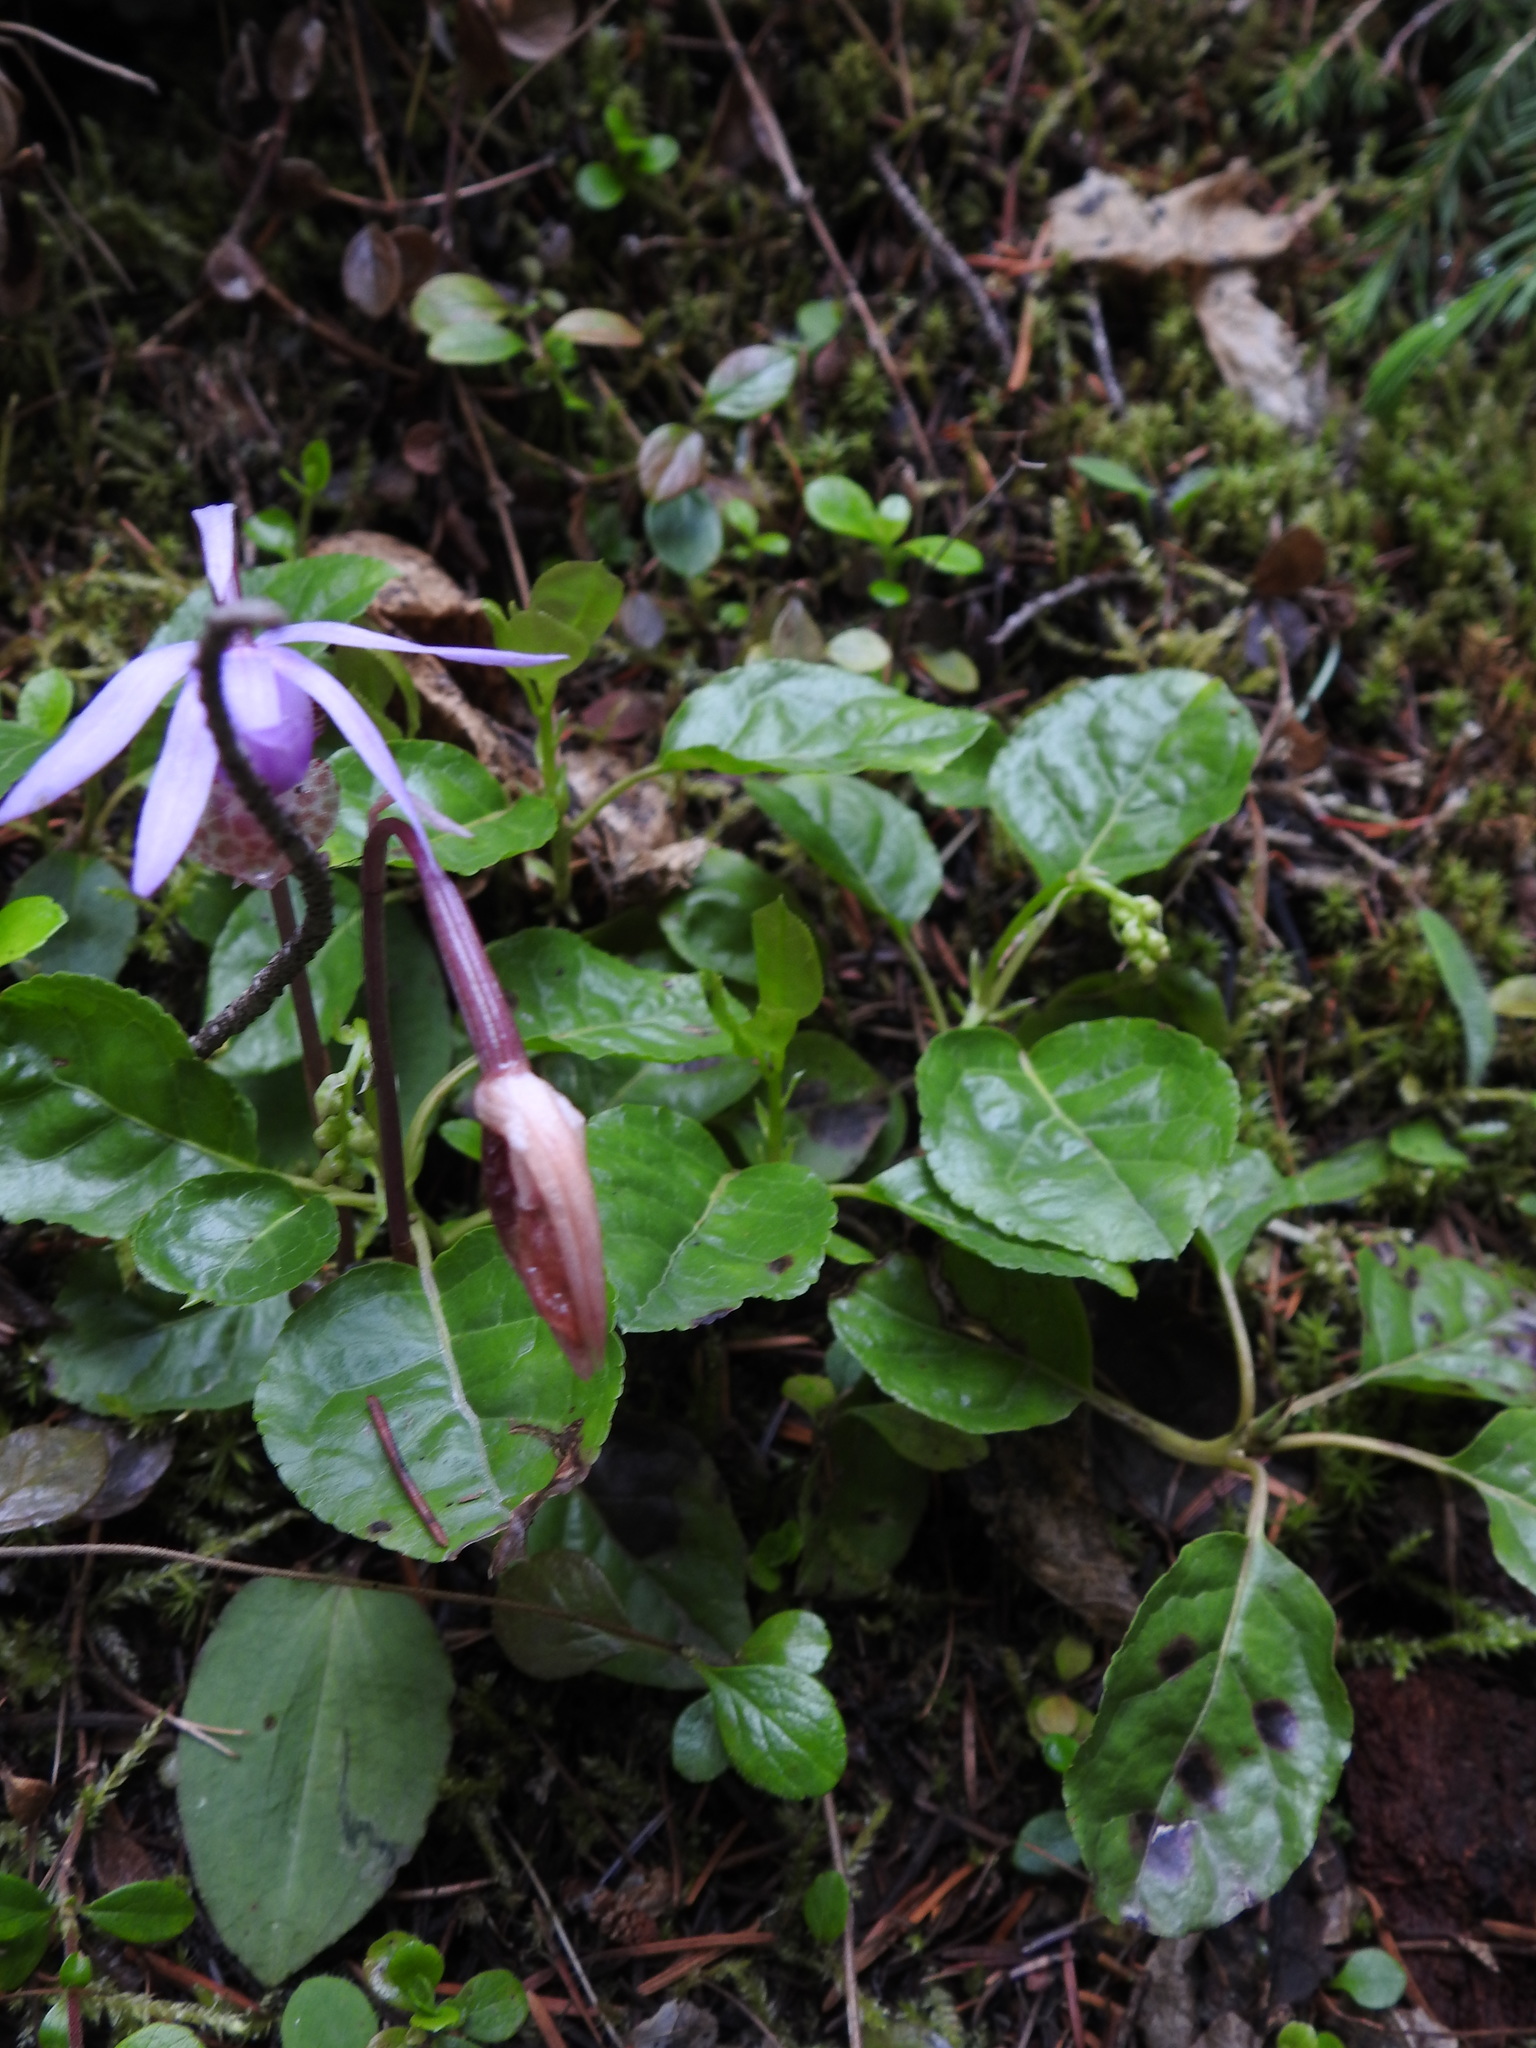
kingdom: Plantae
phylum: Tracheophyta
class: Liliopsida
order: Asparagales
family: Orchidaceae
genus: Calypso
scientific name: Calypso bulbosa
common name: Calypso
